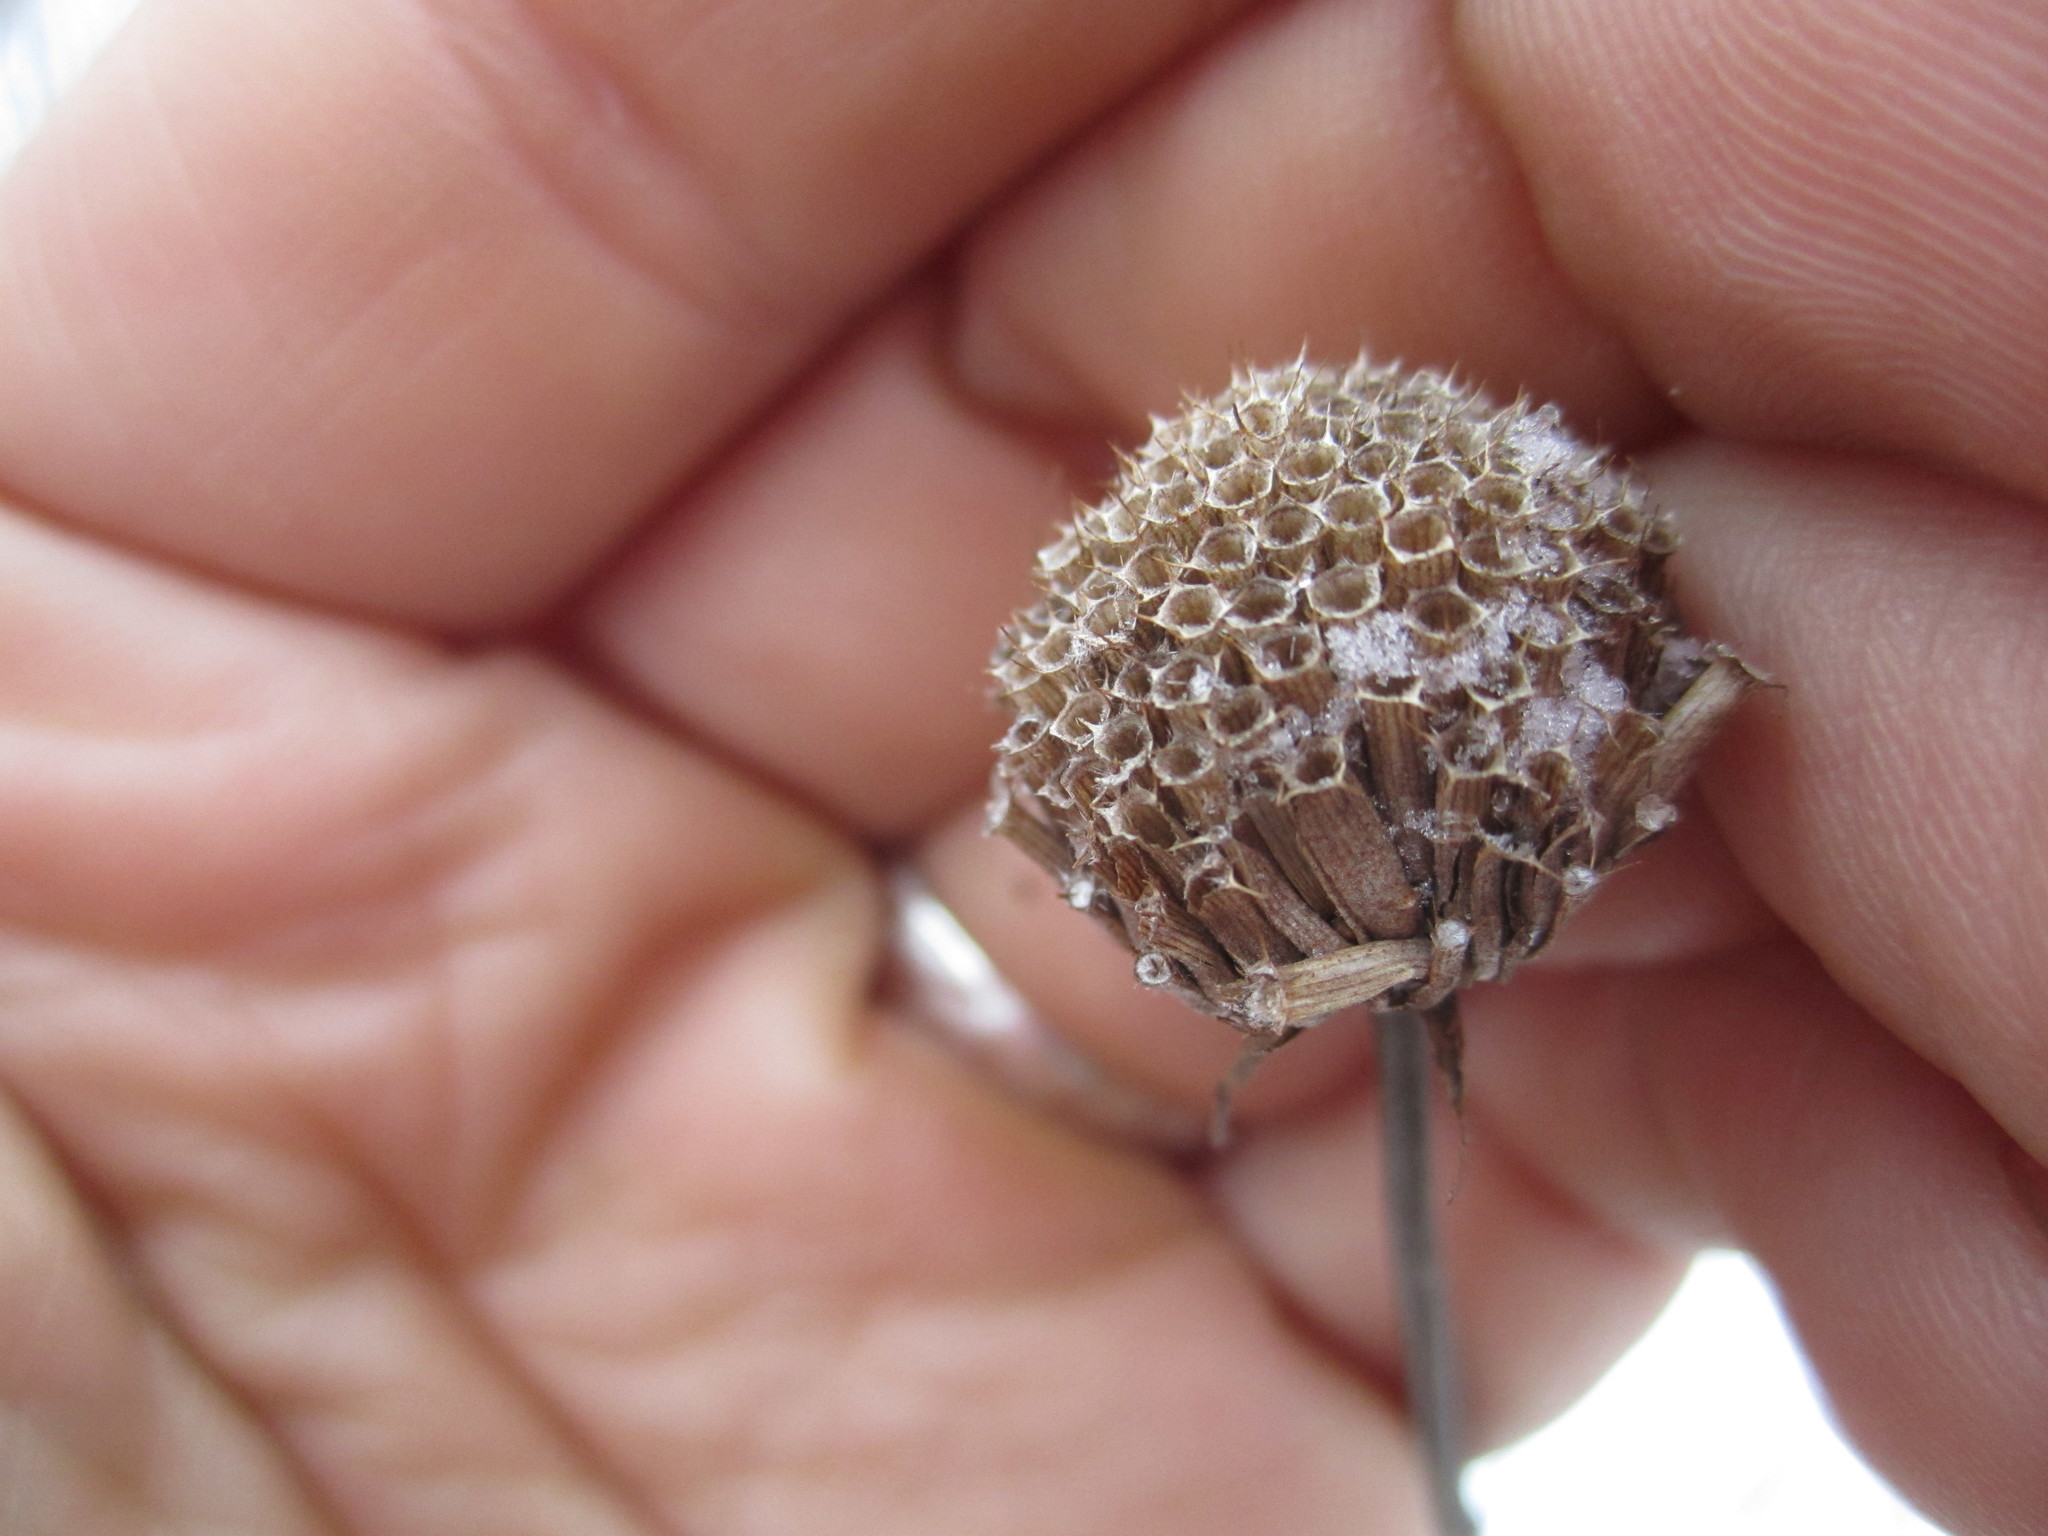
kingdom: Plantae
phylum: Tracheophyta
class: Magnoliopsida
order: Lamiales
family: Lamiaceae
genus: Monarda
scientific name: Monarda fistulosa
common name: Purple beebalm
